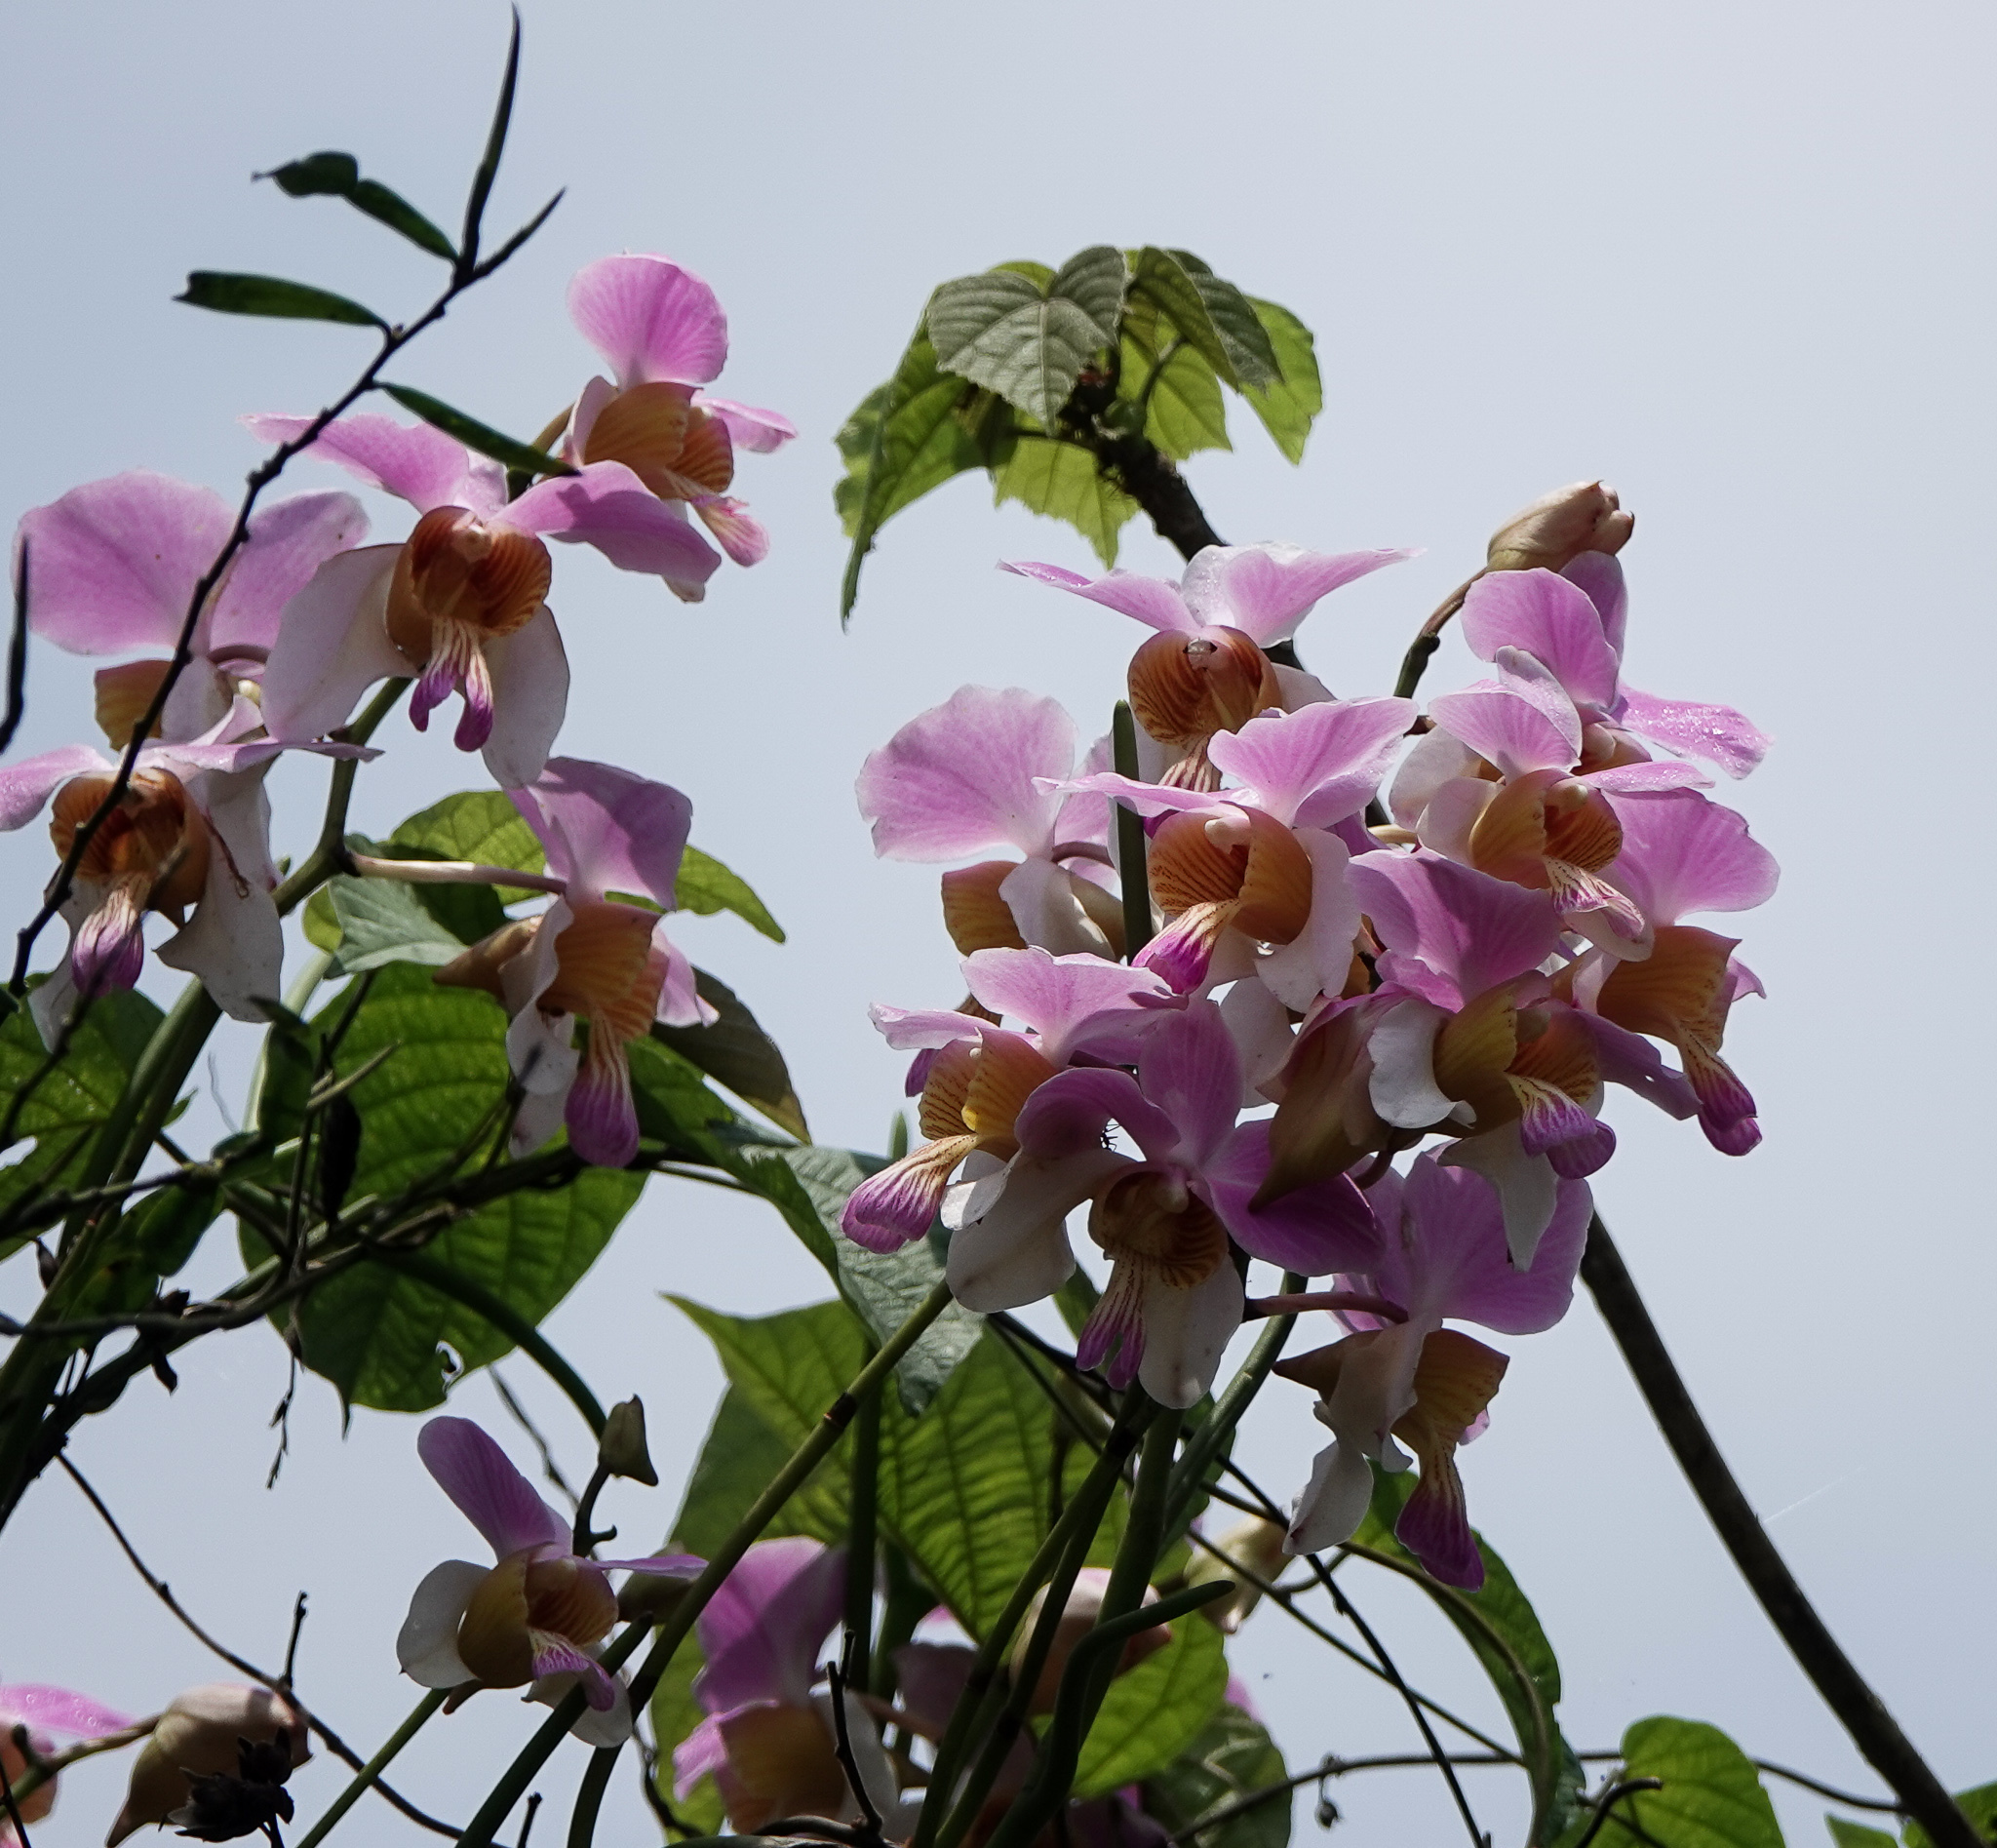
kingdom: Plantae
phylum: Tracheophyta
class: Liliopsida
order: Asparagales
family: Orchidaceae
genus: Papilionanthe
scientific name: Papilionanthe teres
